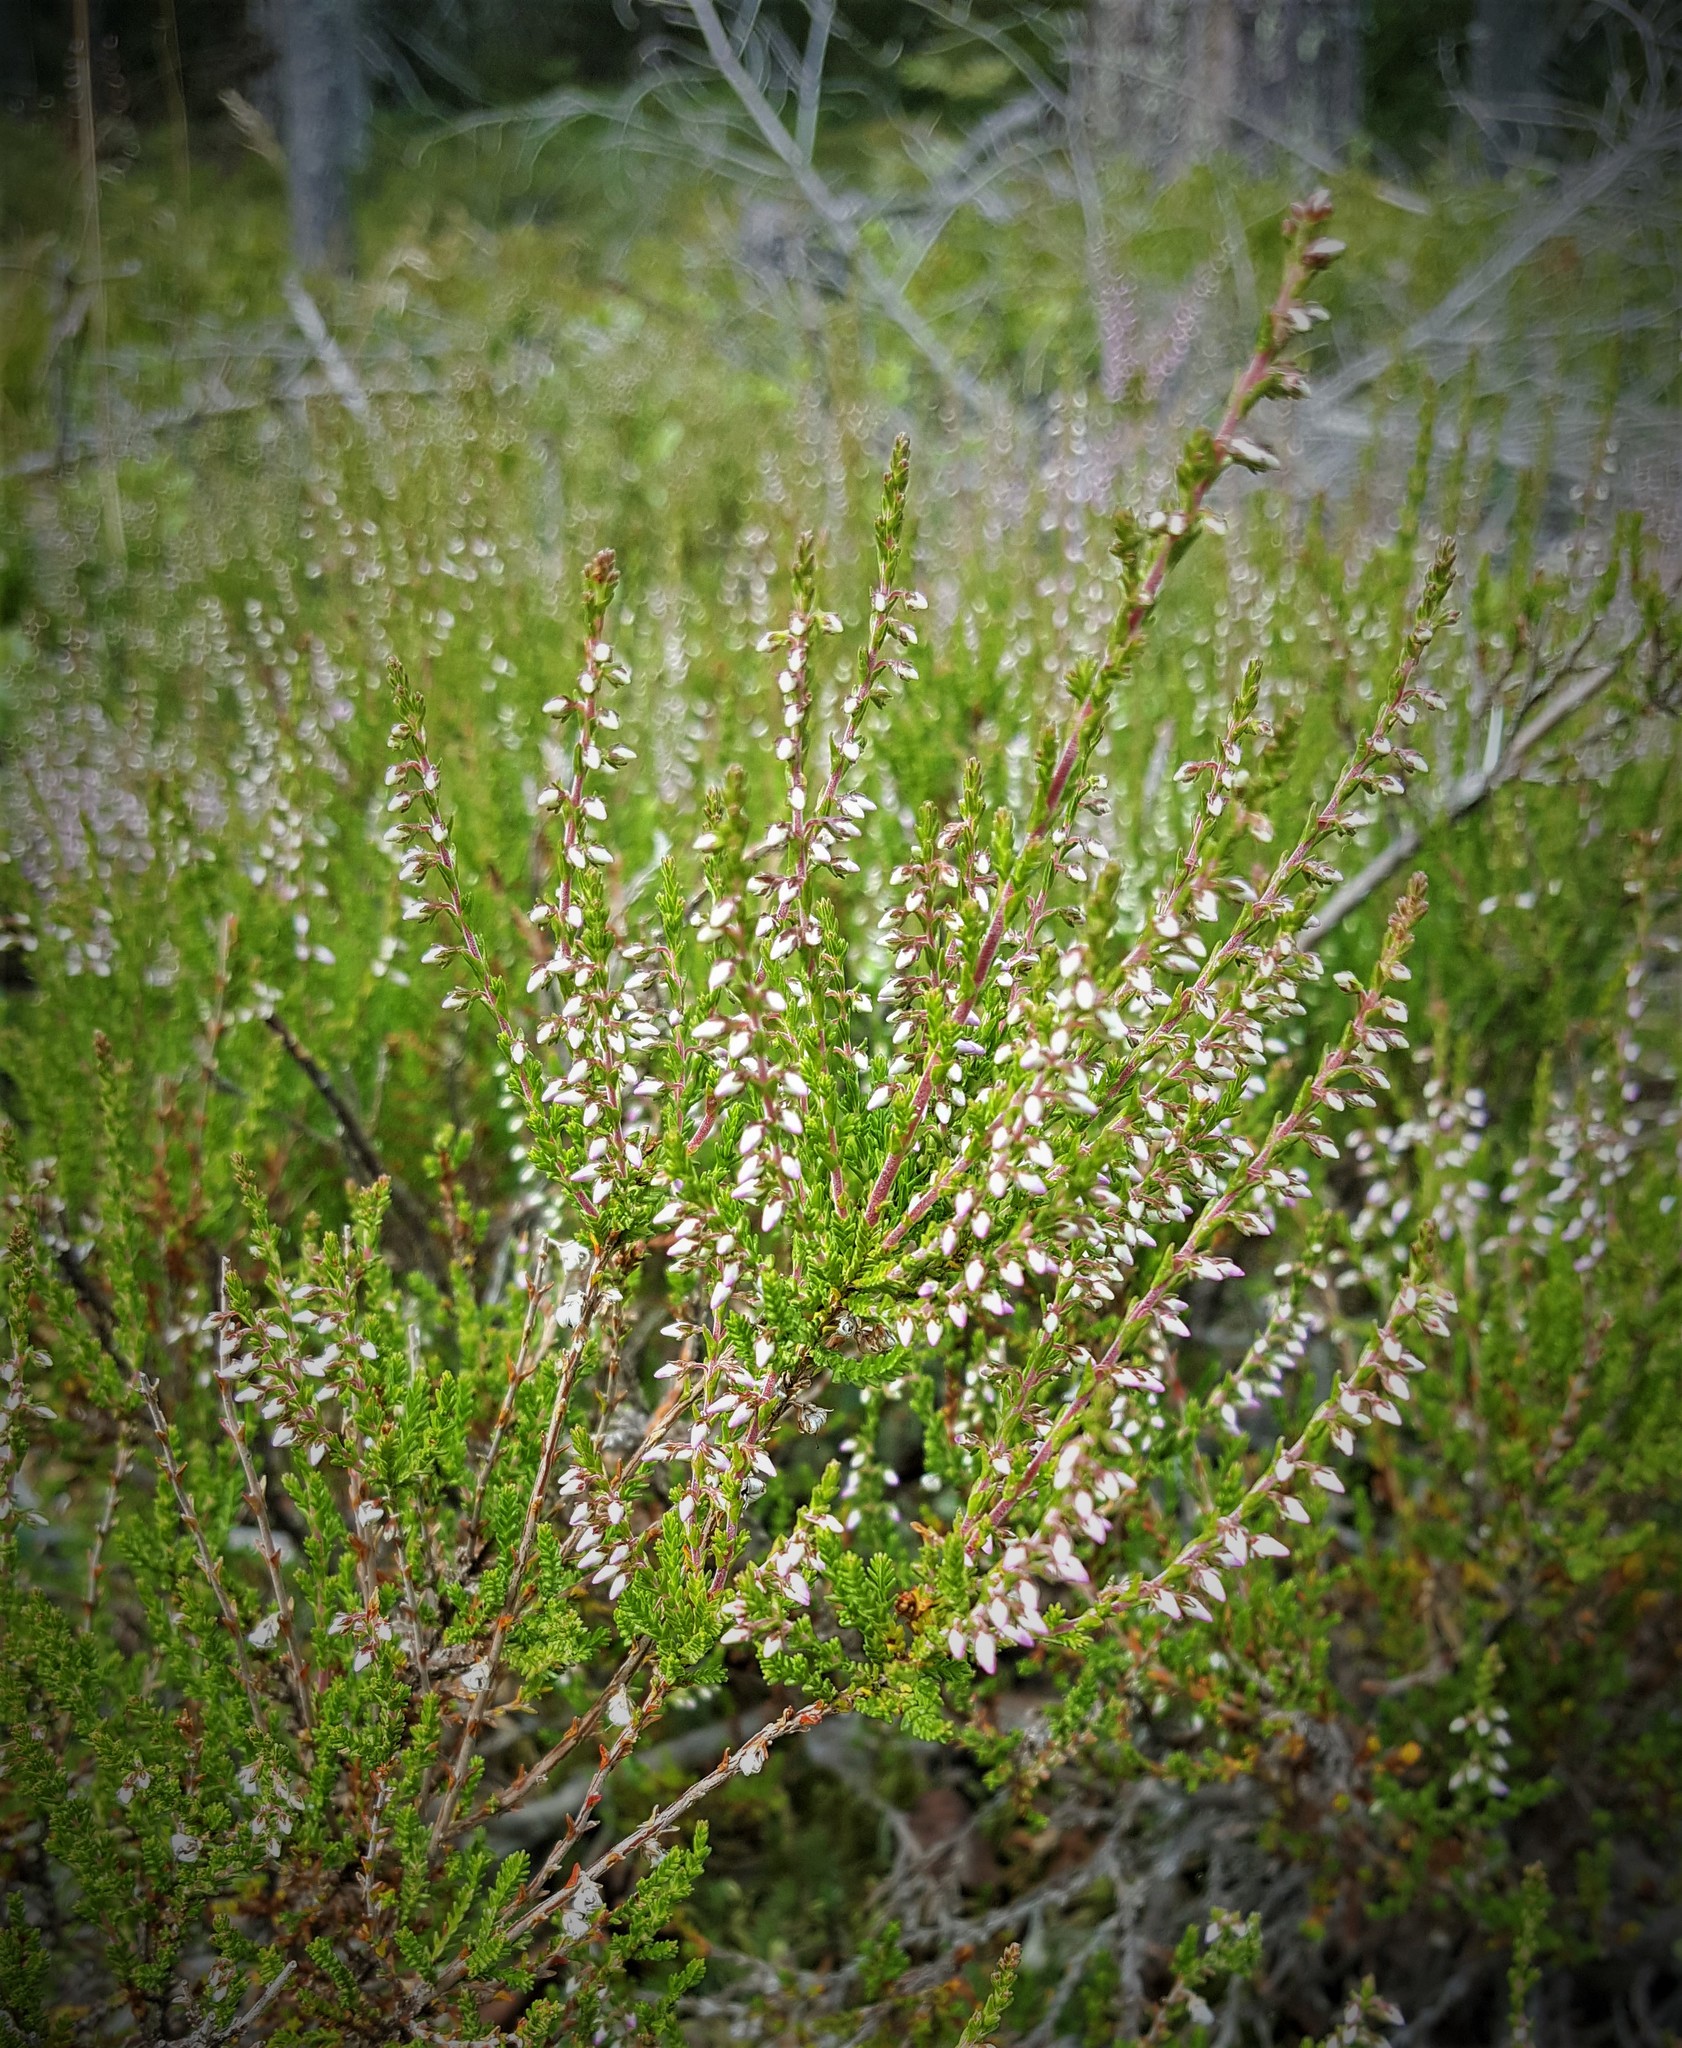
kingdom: Plantae
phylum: Tracheophyta
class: Magnoliopsida
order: Ericales
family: Ericaceae
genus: Calluna
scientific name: Calluna vulgaris
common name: Heather
